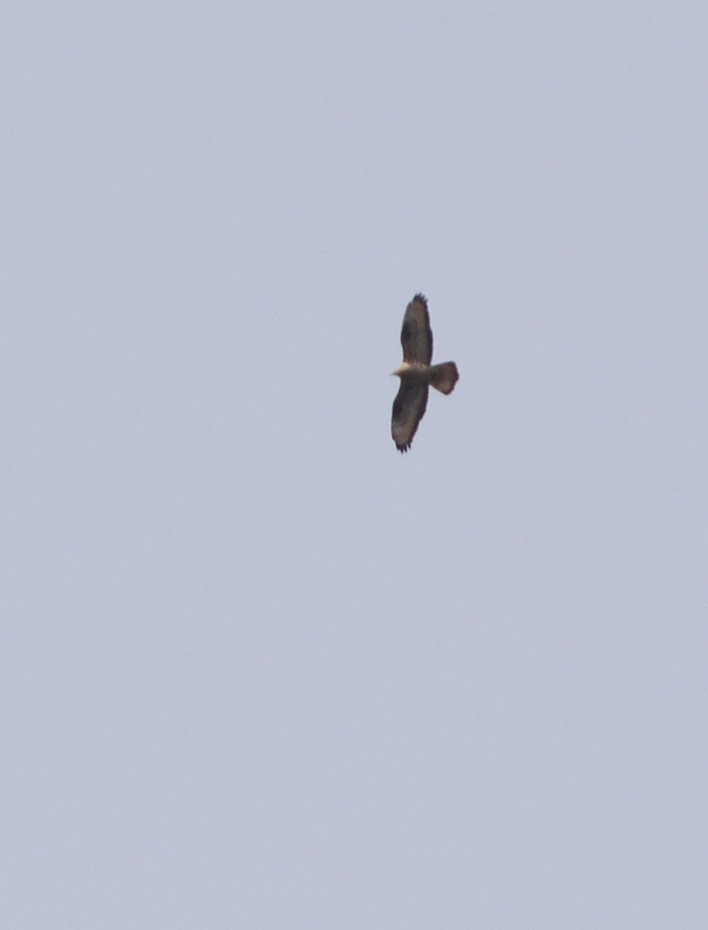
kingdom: Animalia
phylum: Chordata
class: Aves
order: Accipitriformes
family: Accipitridae
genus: Pernis
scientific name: Pernis apivorus
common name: European honey buzzard
